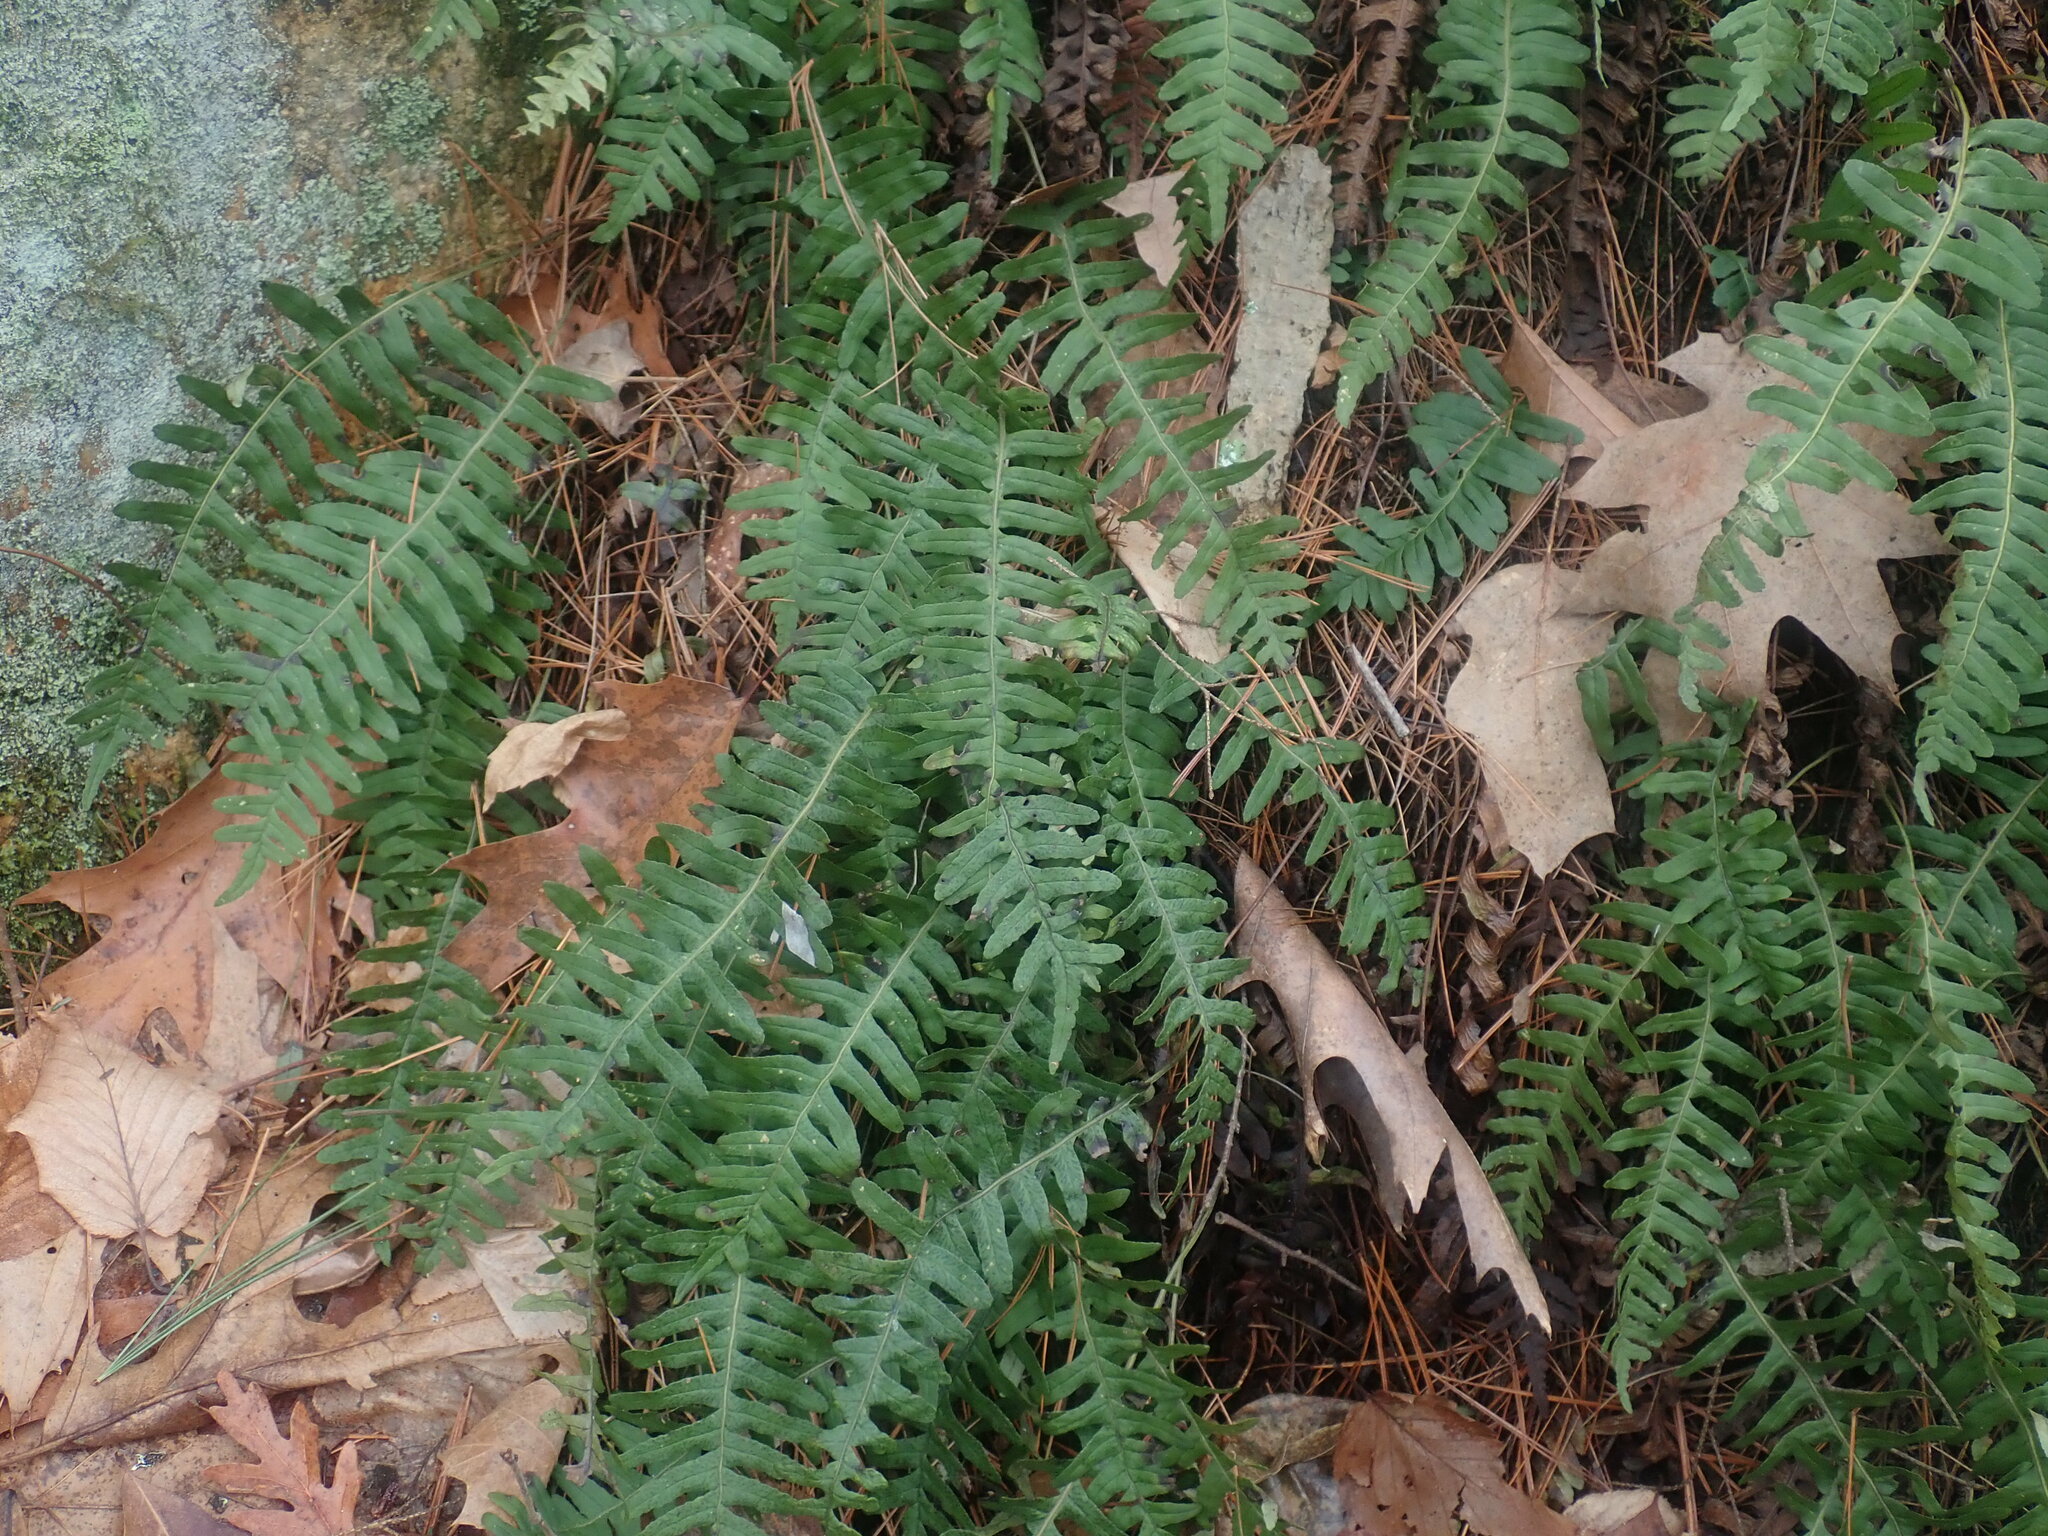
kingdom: Plantae
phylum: Tracheophyta
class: Polypodiopsida
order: Polypodiales
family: Polypodiaceae
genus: Polypodium
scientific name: Polypodium
